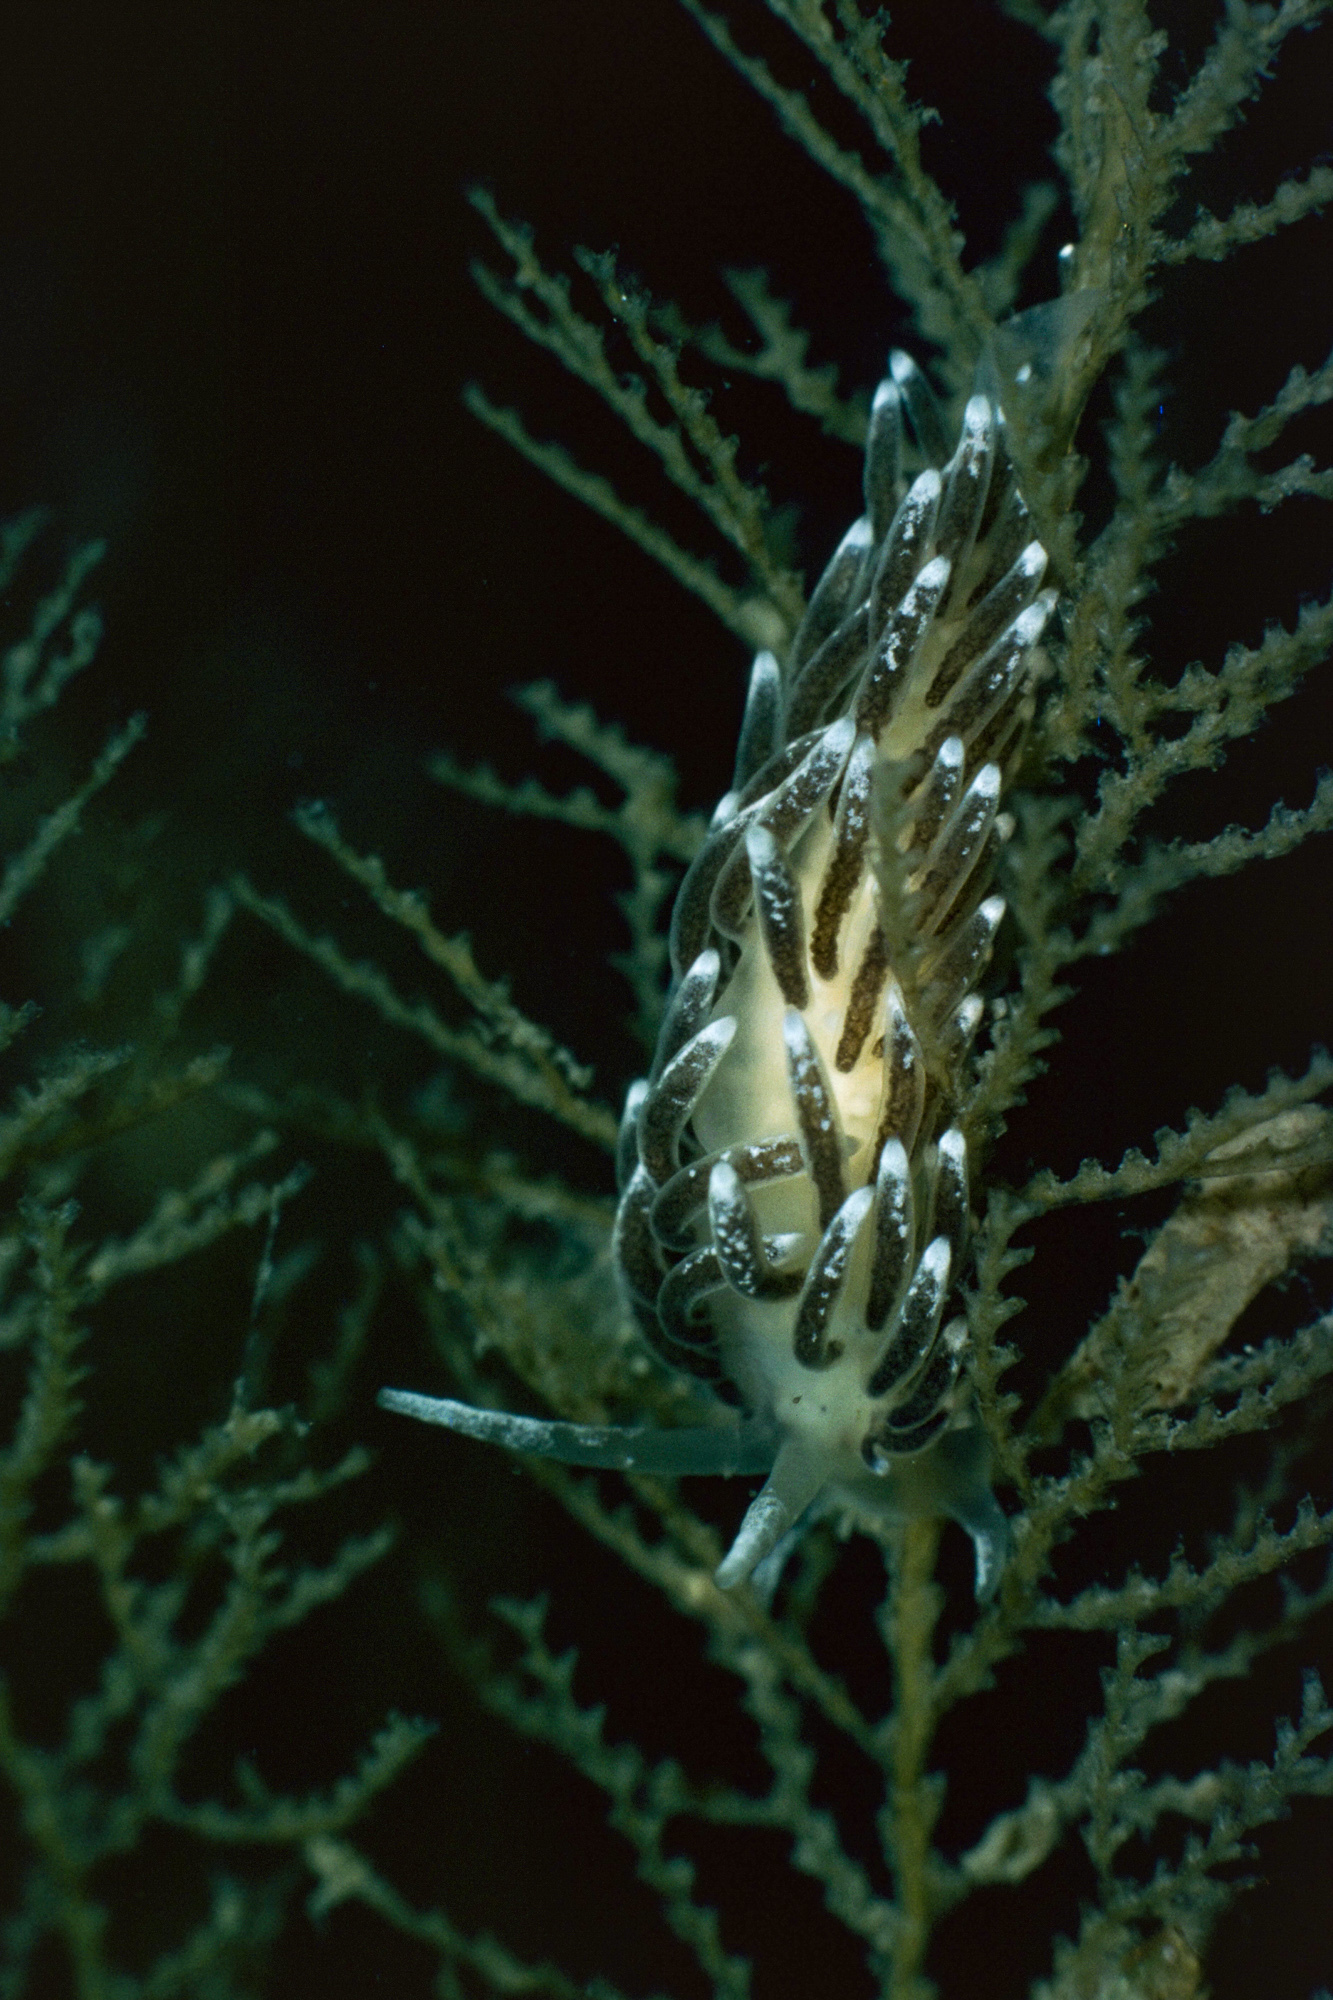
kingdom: Animalia
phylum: Mollusca
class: Gastropoda
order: Nudibranchia
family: Cuthonellidae
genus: Cuthonella
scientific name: Cuthonella concinna
